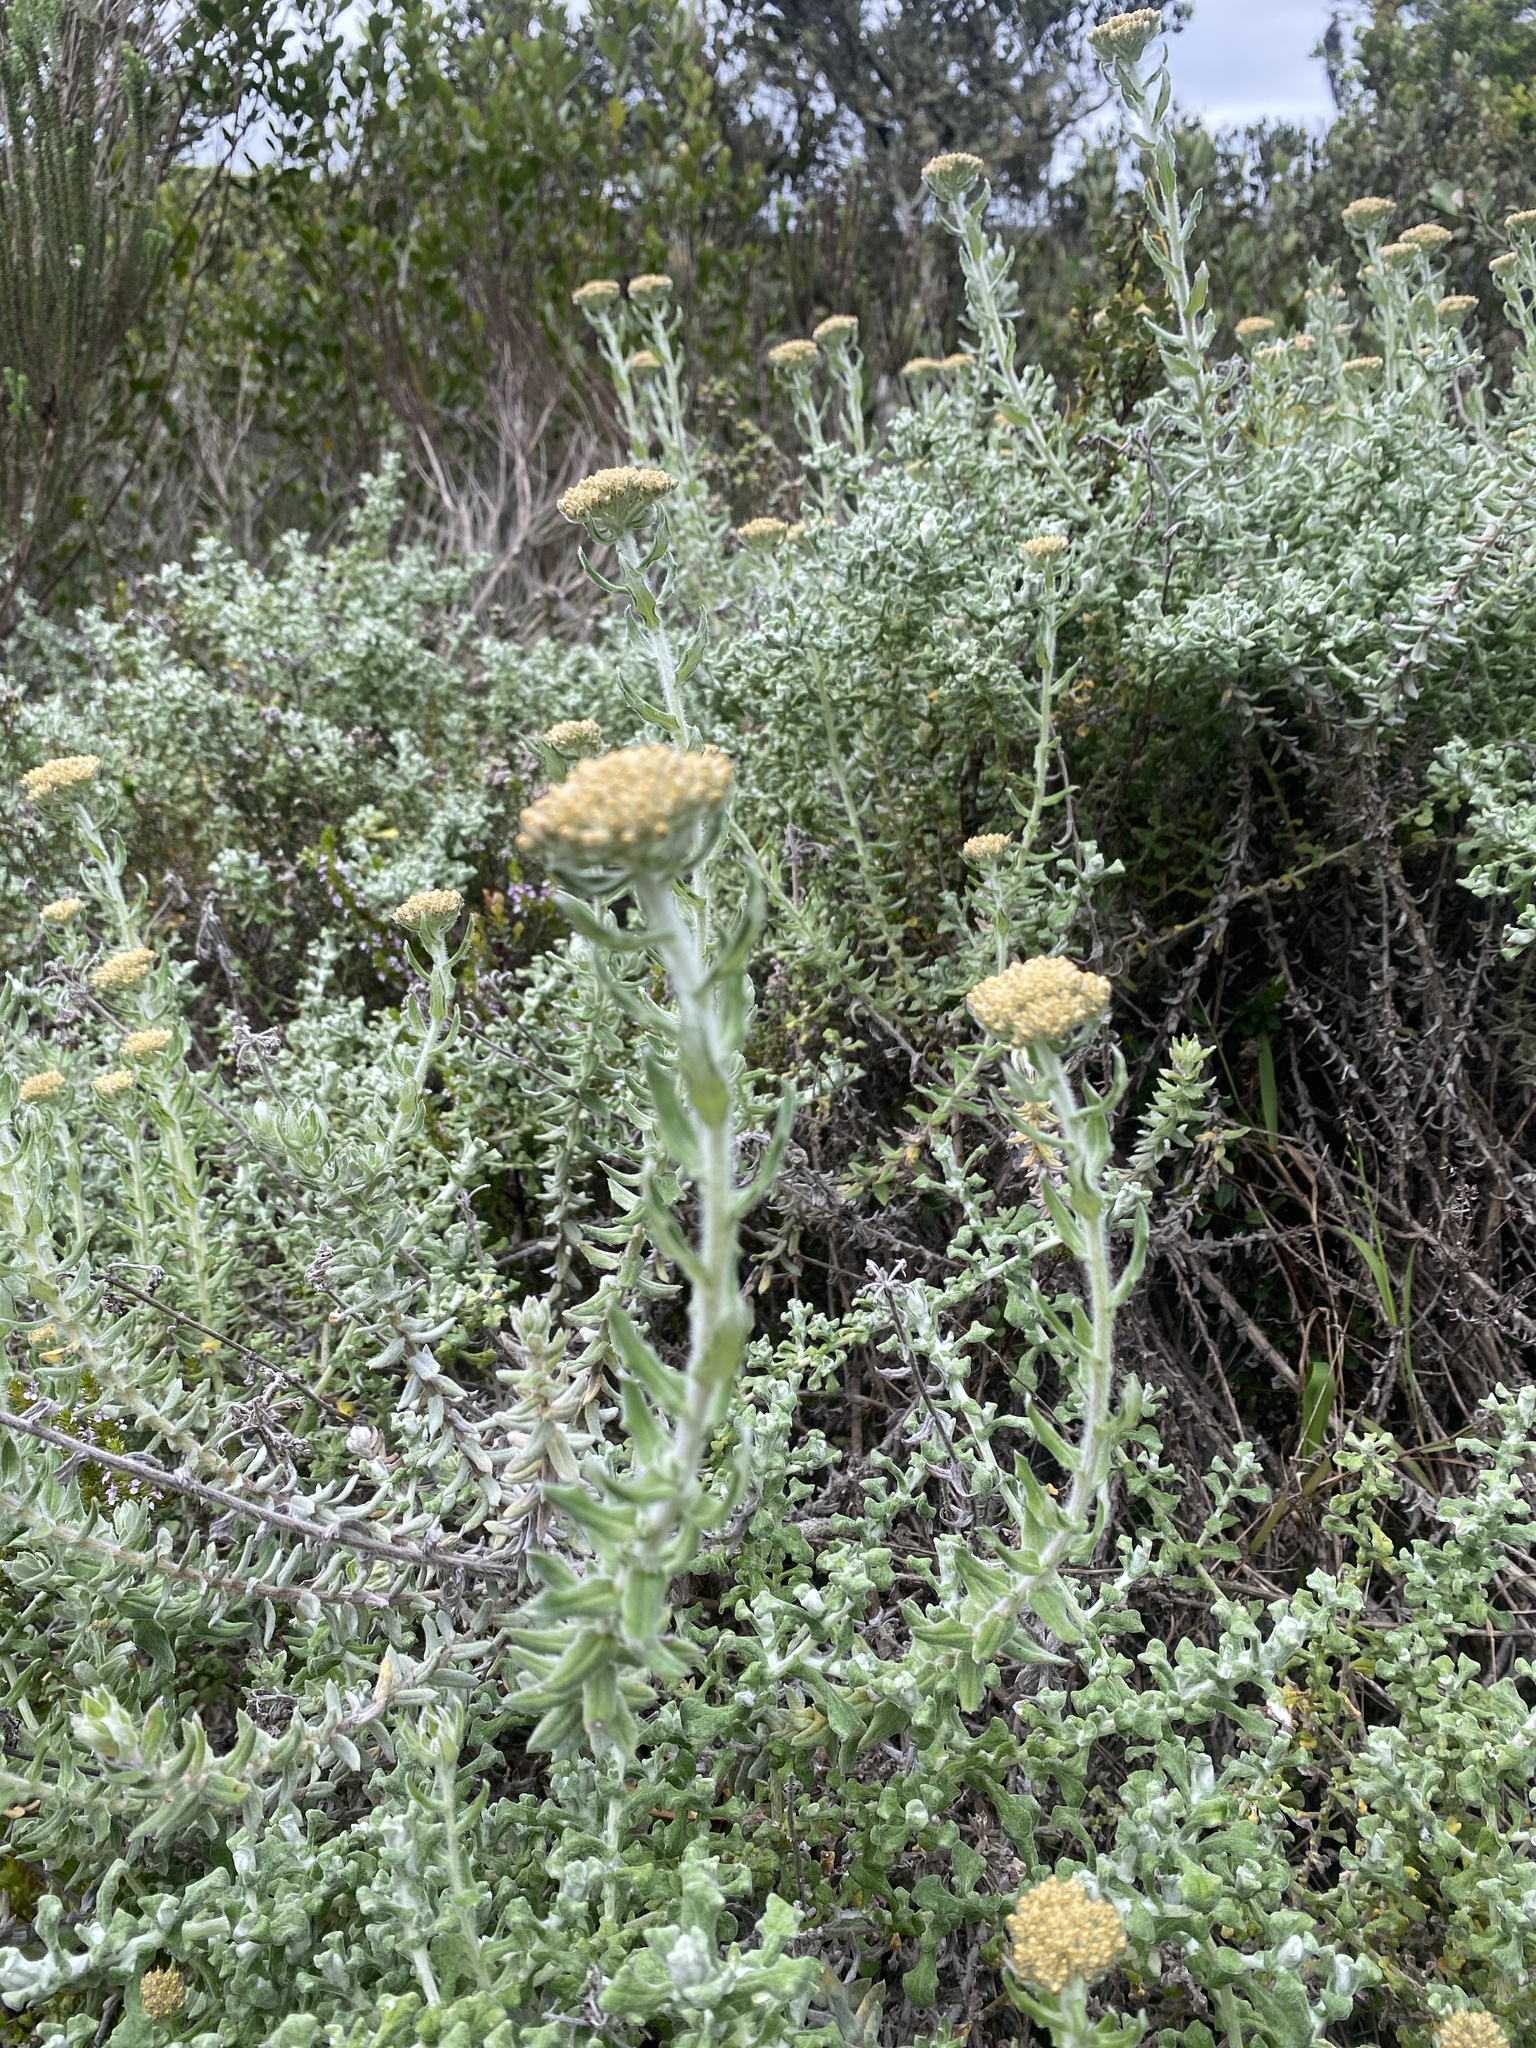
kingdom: Plantae
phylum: Tracheophyta
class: Magnoliopsida
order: Asterales
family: Asteraceae
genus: Helichrysum
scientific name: Helichrysum dasyanthum
